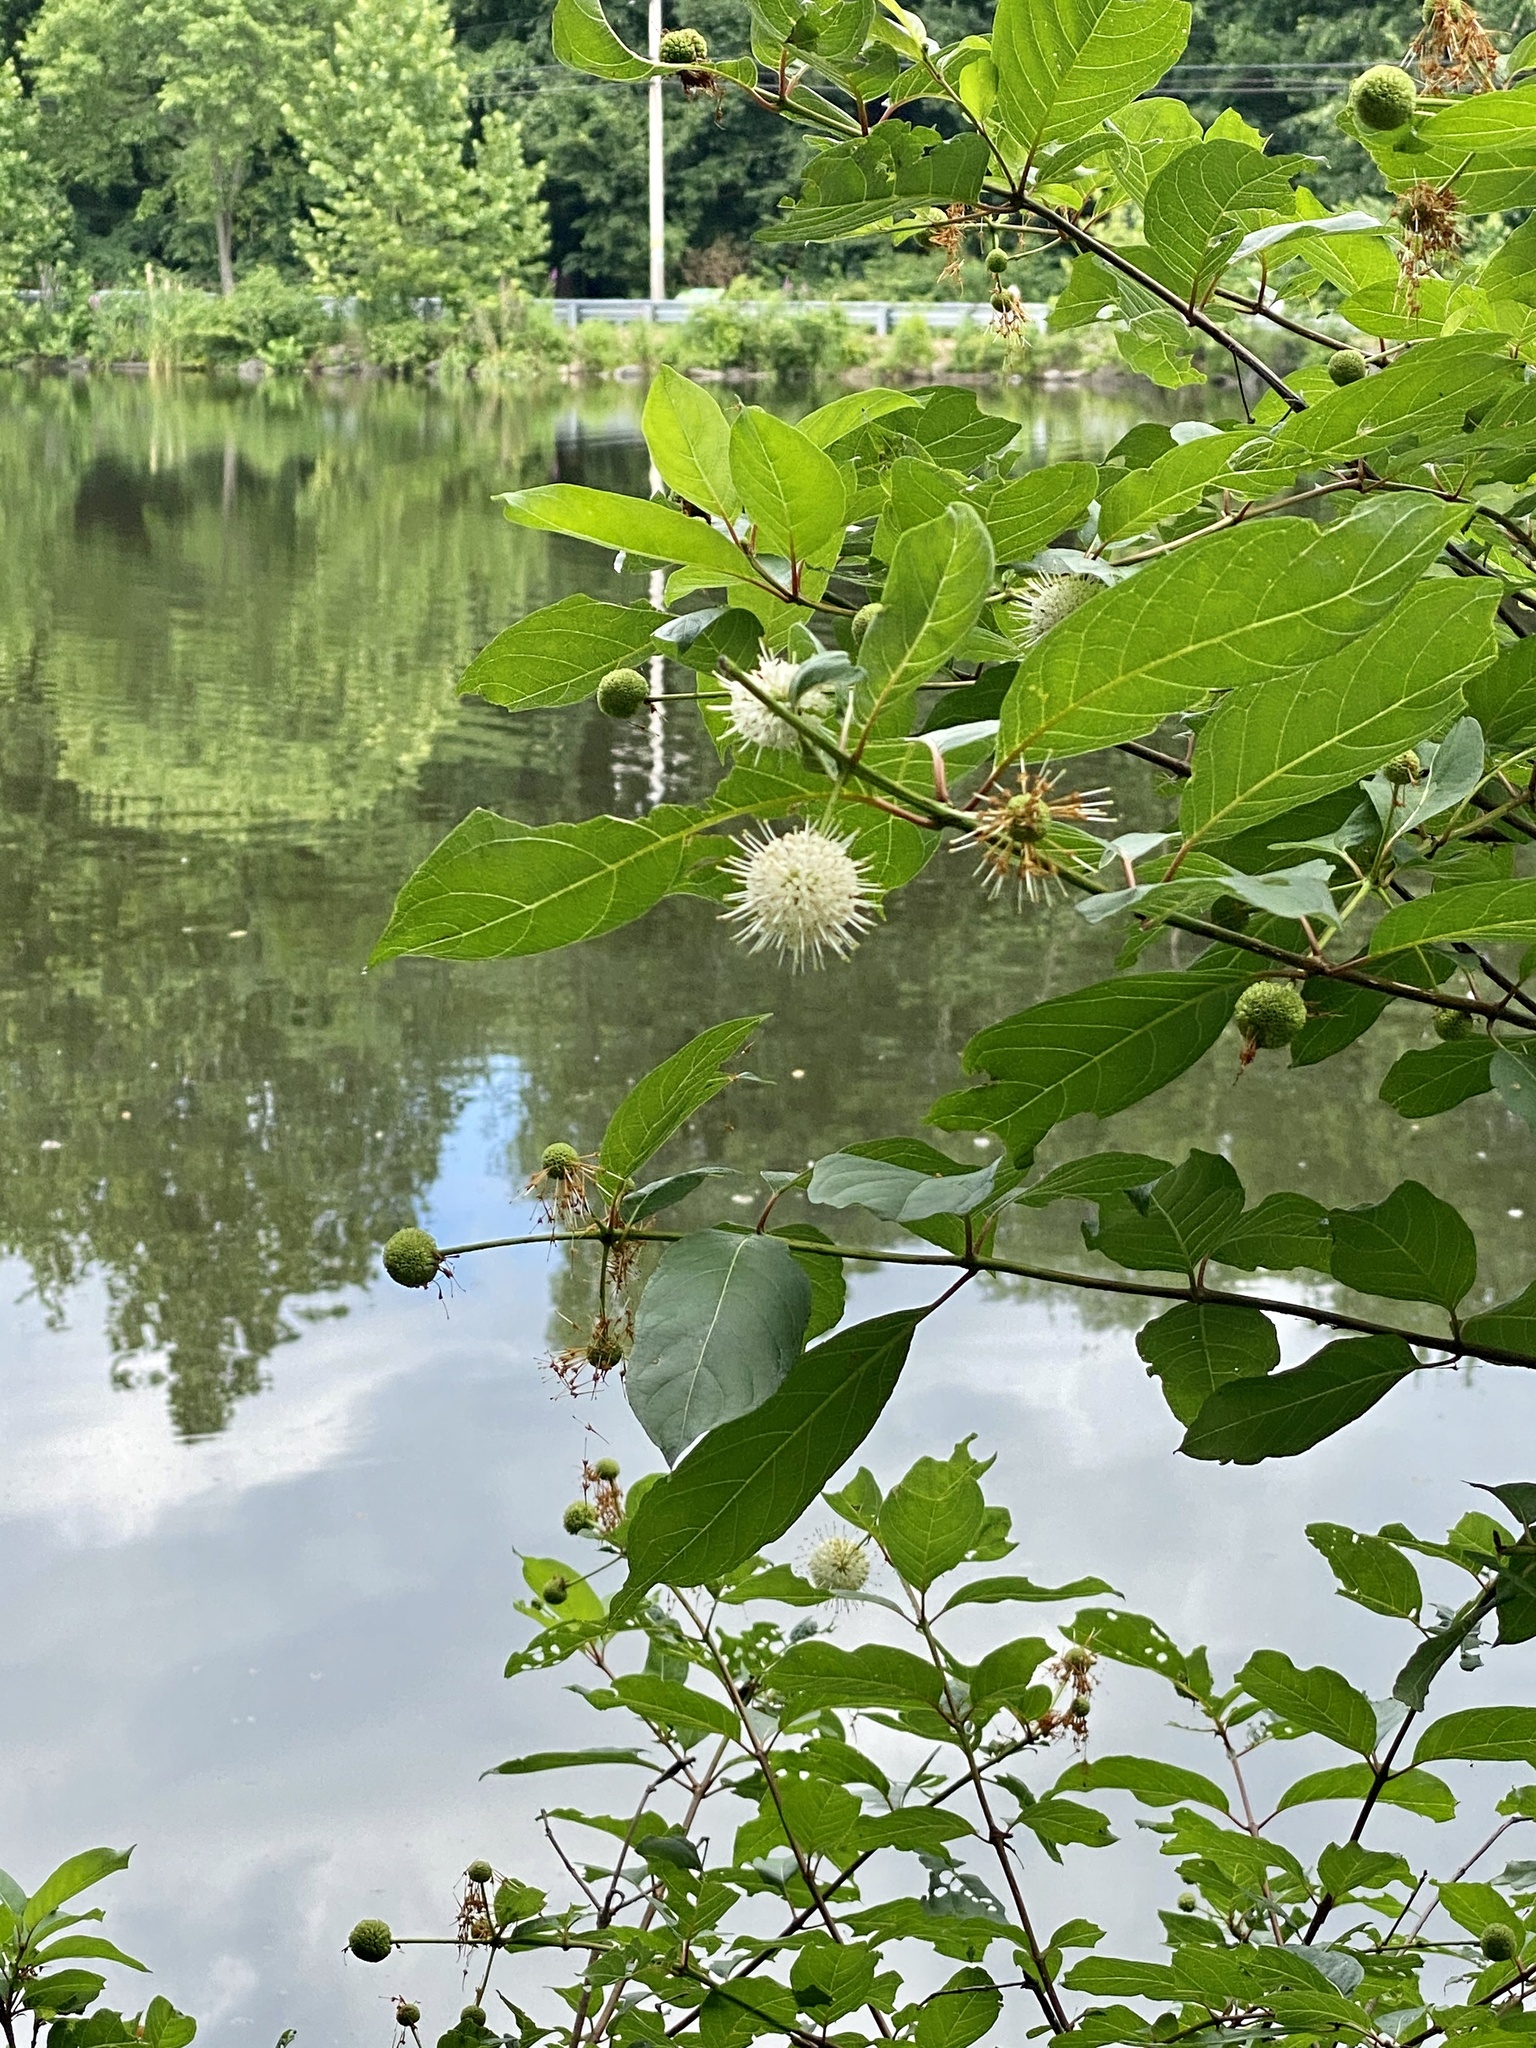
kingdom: Plantae
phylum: Tracheophyta
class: Magnoliopsida
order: Gentianales
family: Rubiaceae
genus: Cephalanthus
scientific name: Cephalanthus occidentalis
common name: Button-willow
